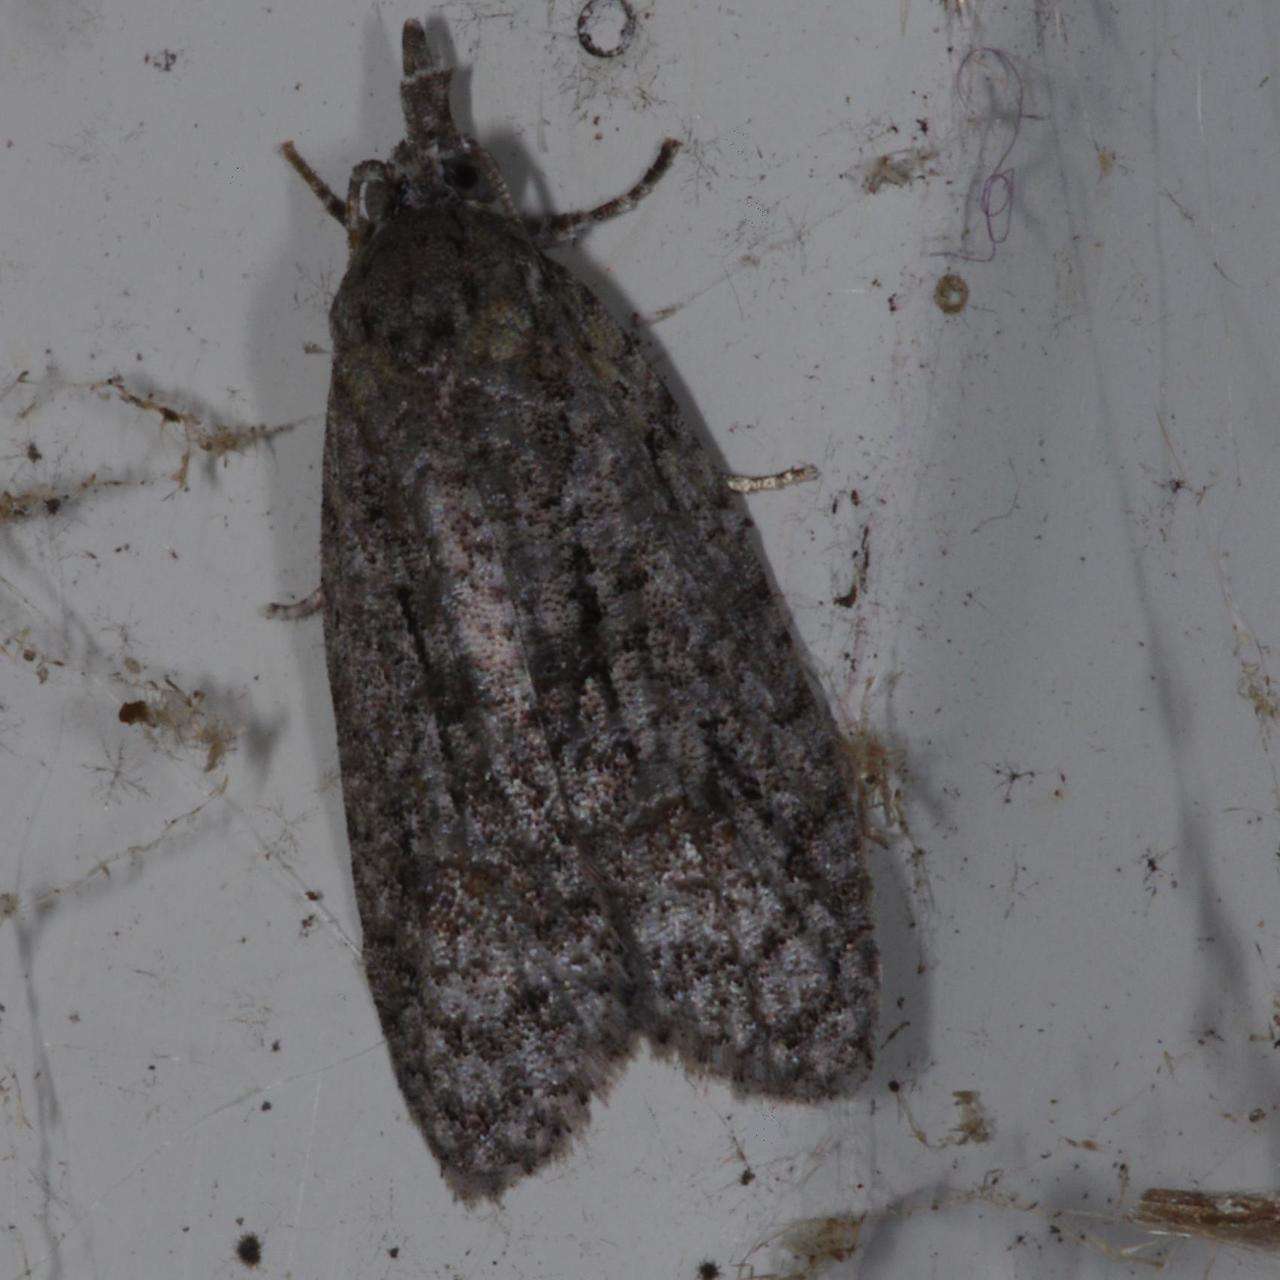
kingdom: Animalia
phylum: Arthropoda
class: Insecta
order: Lepidoptera
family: Tortricidae
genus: Tracholena
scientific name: Tracholena homopolia
